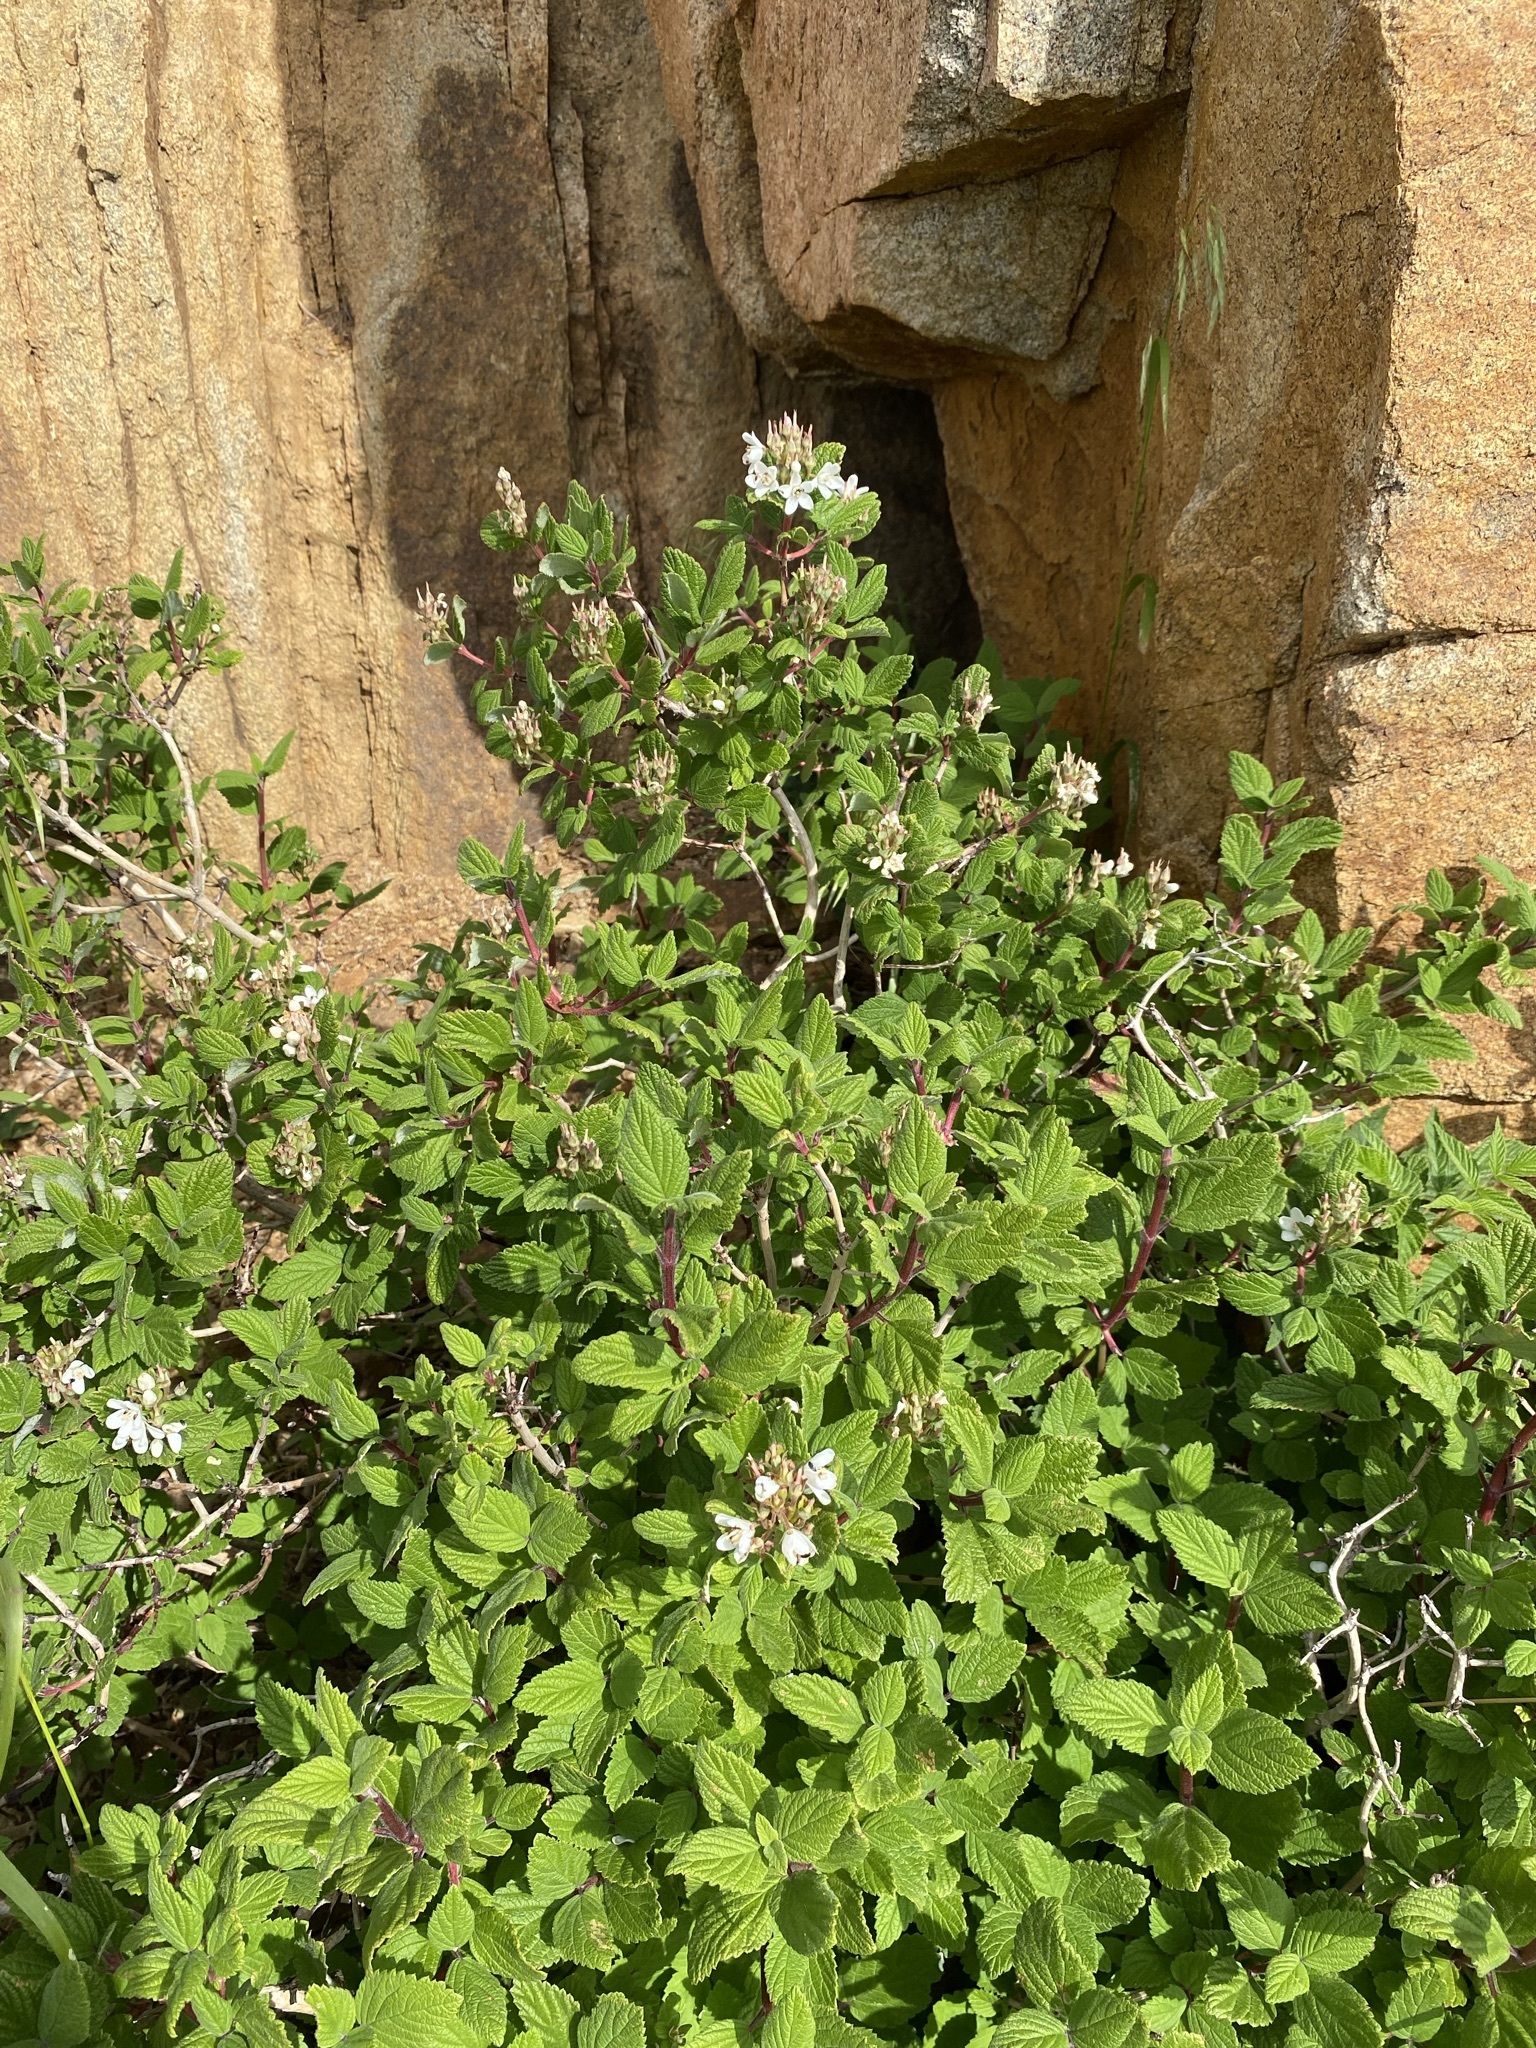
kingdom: Plantae
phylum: Tracheophyta
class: Magnoliopsida
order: Cornales
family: Hydrangeaceae
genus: Jamesia
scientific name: Jamesia americana
